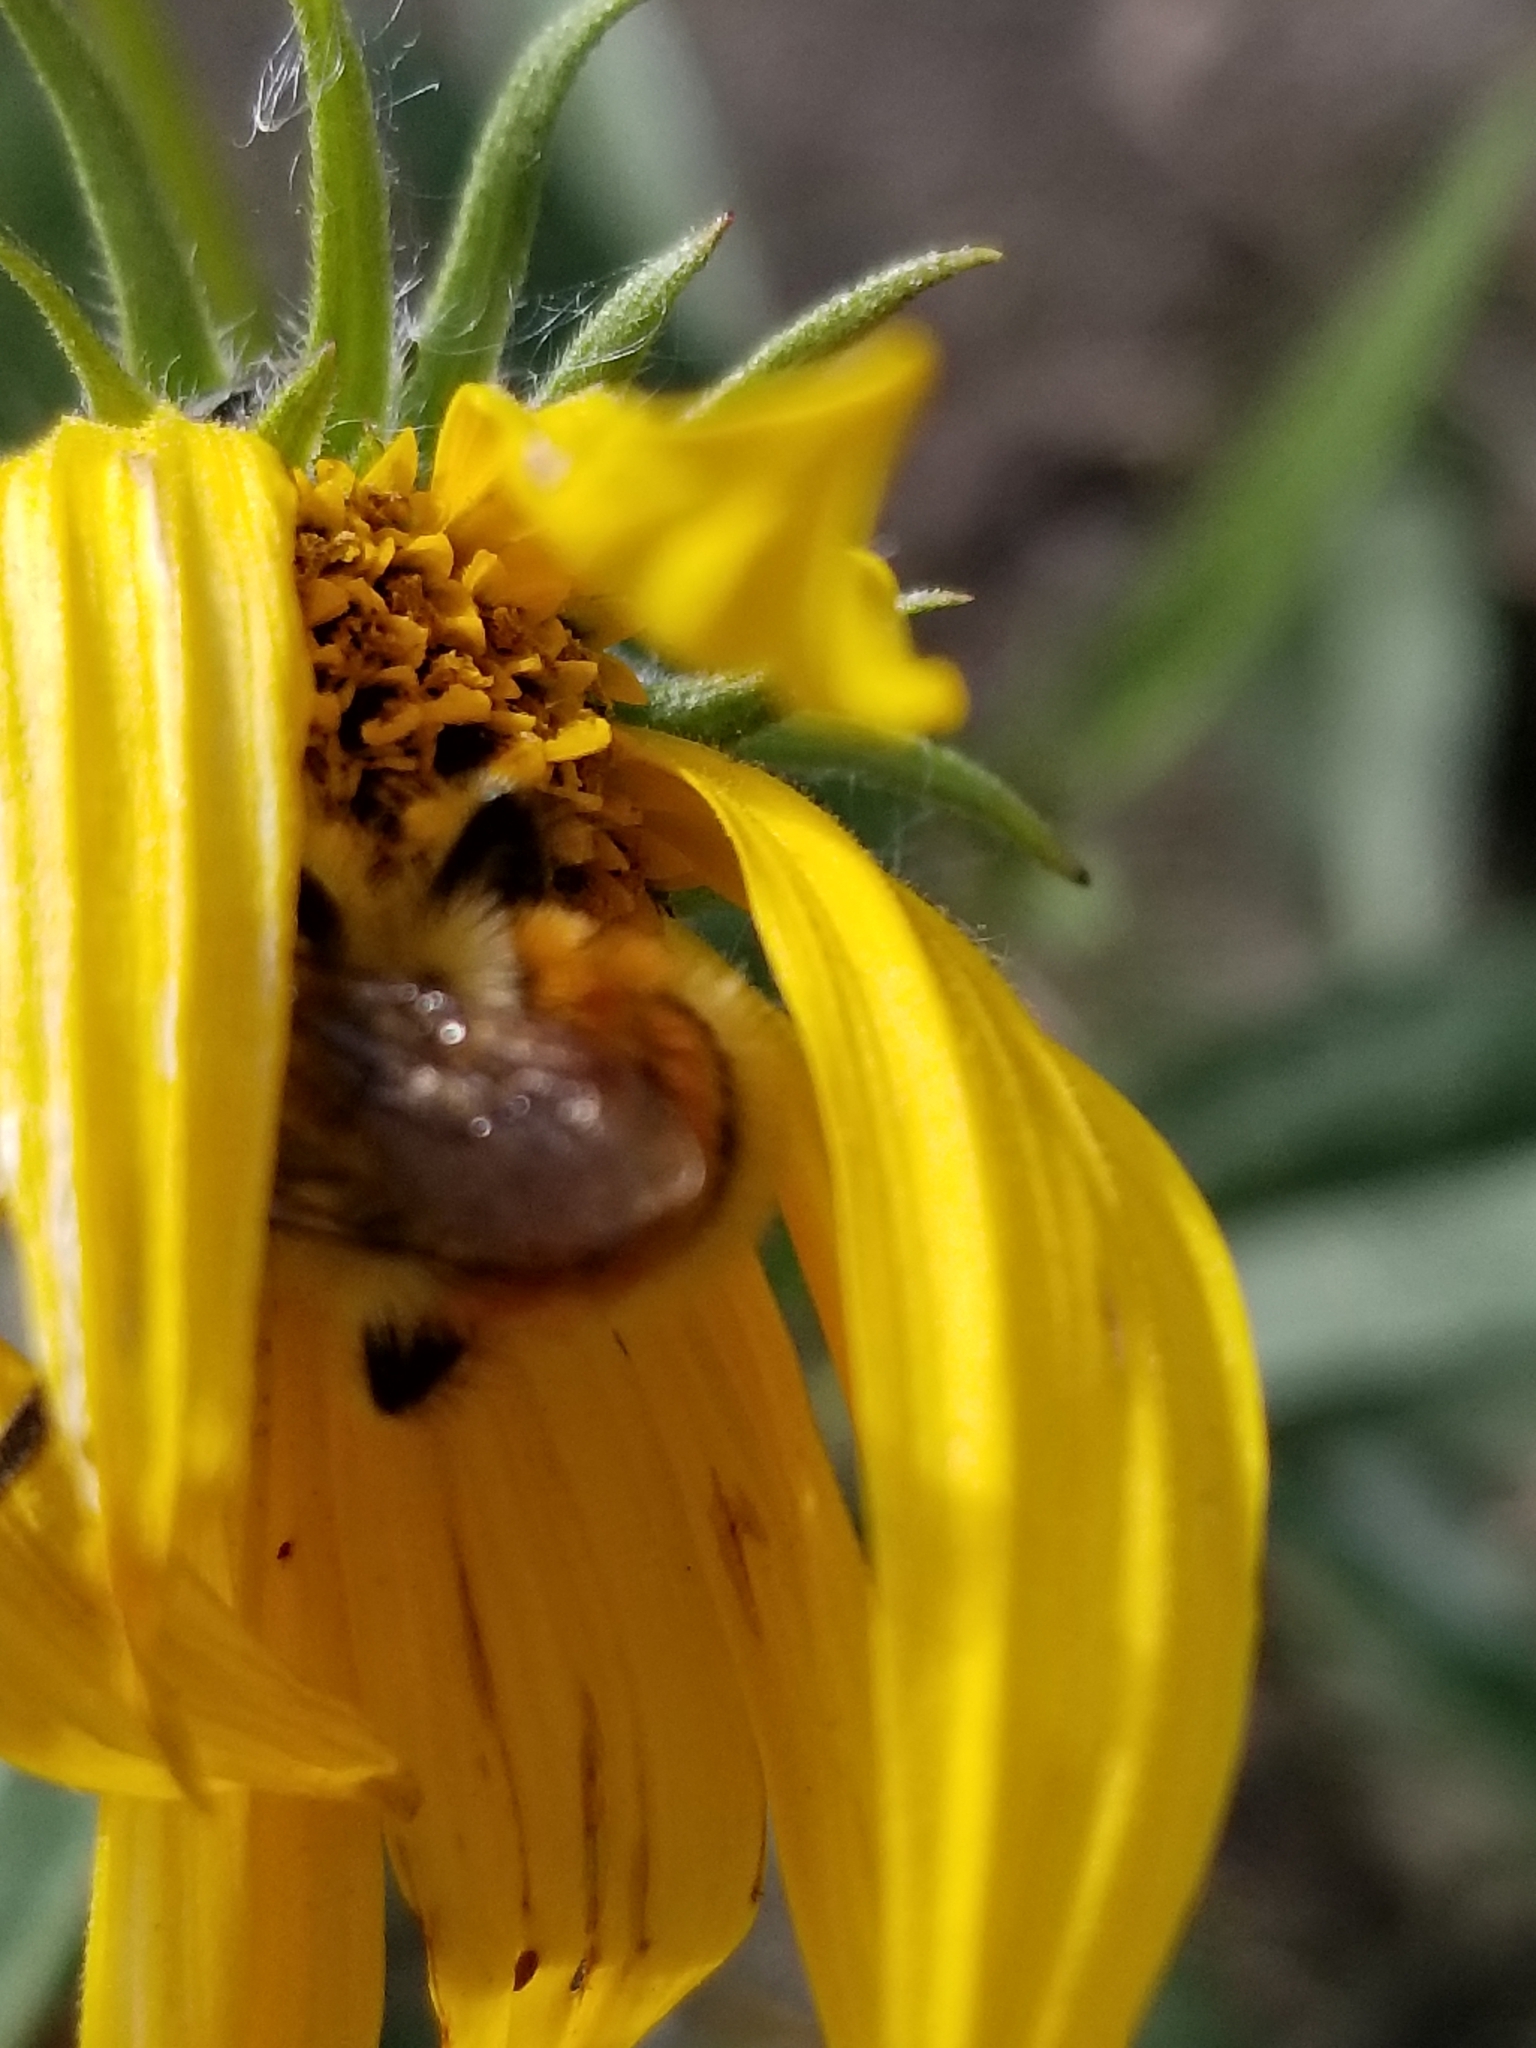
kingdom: Animalia
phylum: Arthropoda
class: Insecta
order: Hymenoptera
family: Apidae
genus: Bombus
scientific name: Bombus huntii
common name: Hunt bumble bee
